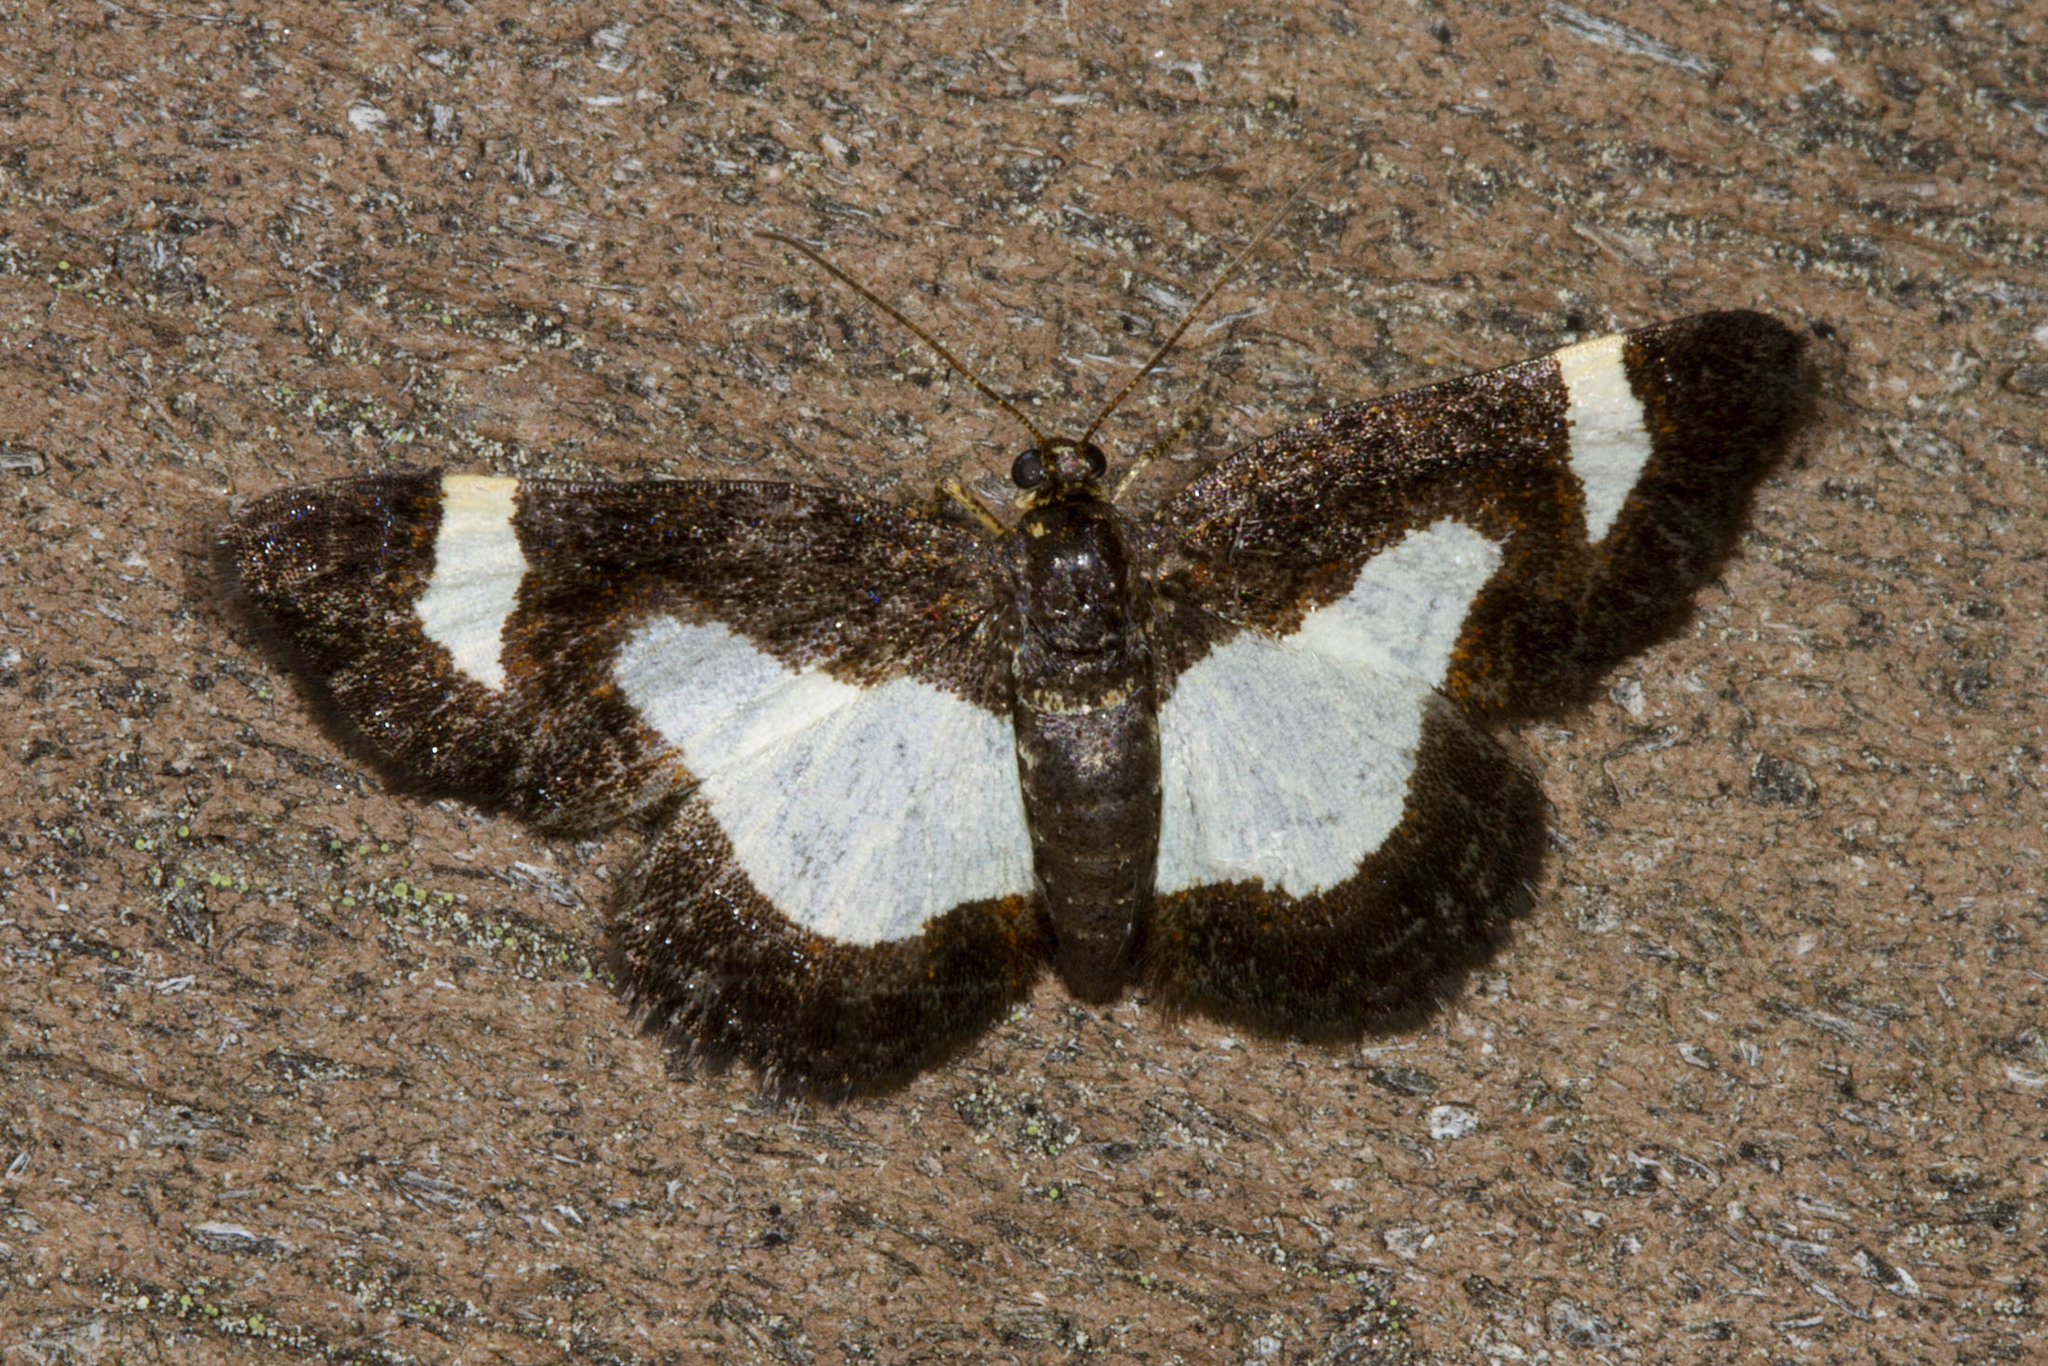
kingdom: Animalia
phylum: Arthropoda
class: Insecta
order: Lepidoptera
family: Geometridae
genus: Heliomata
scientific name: Heliomata cycladata
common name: Common spring moth
